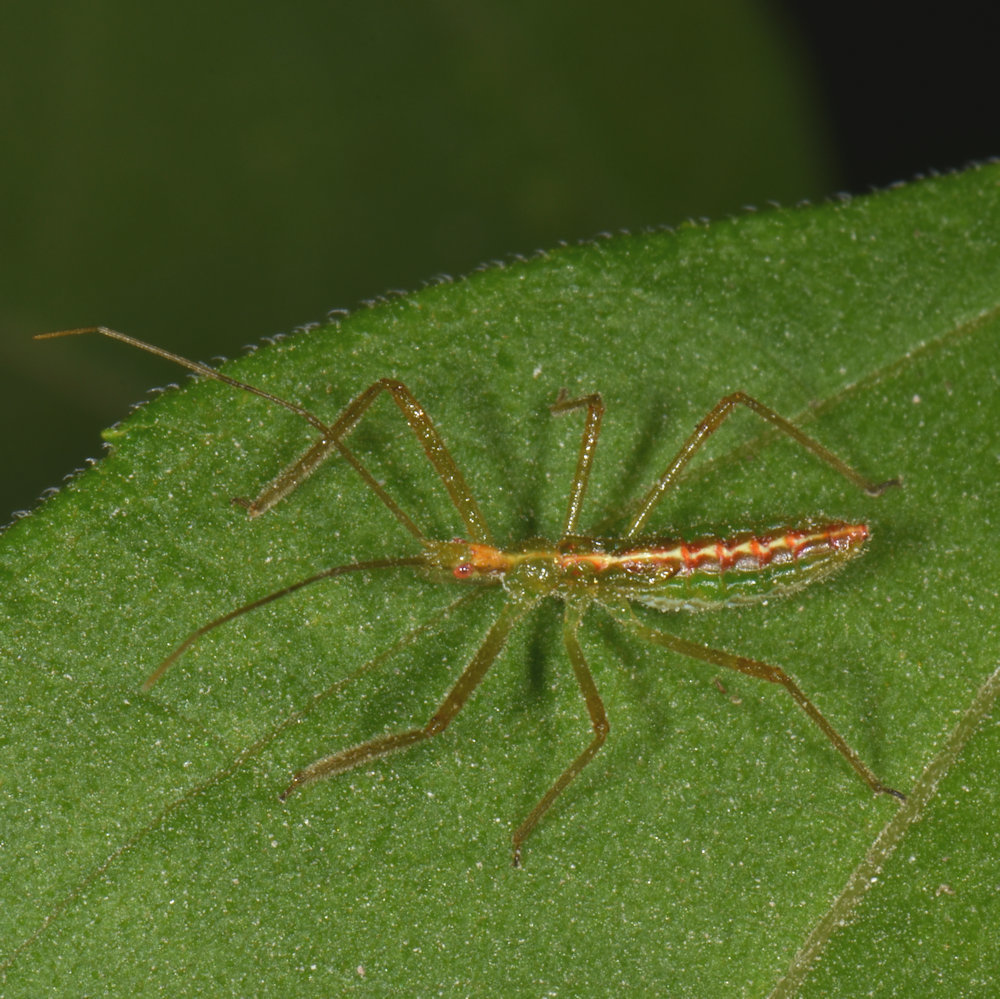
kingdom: Animalia
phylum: Arthropoda
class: Insecta
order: Hemiptera
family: Reduviidae
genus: Zelus
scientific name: Zelus luridus
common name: Pale green assassin bug
